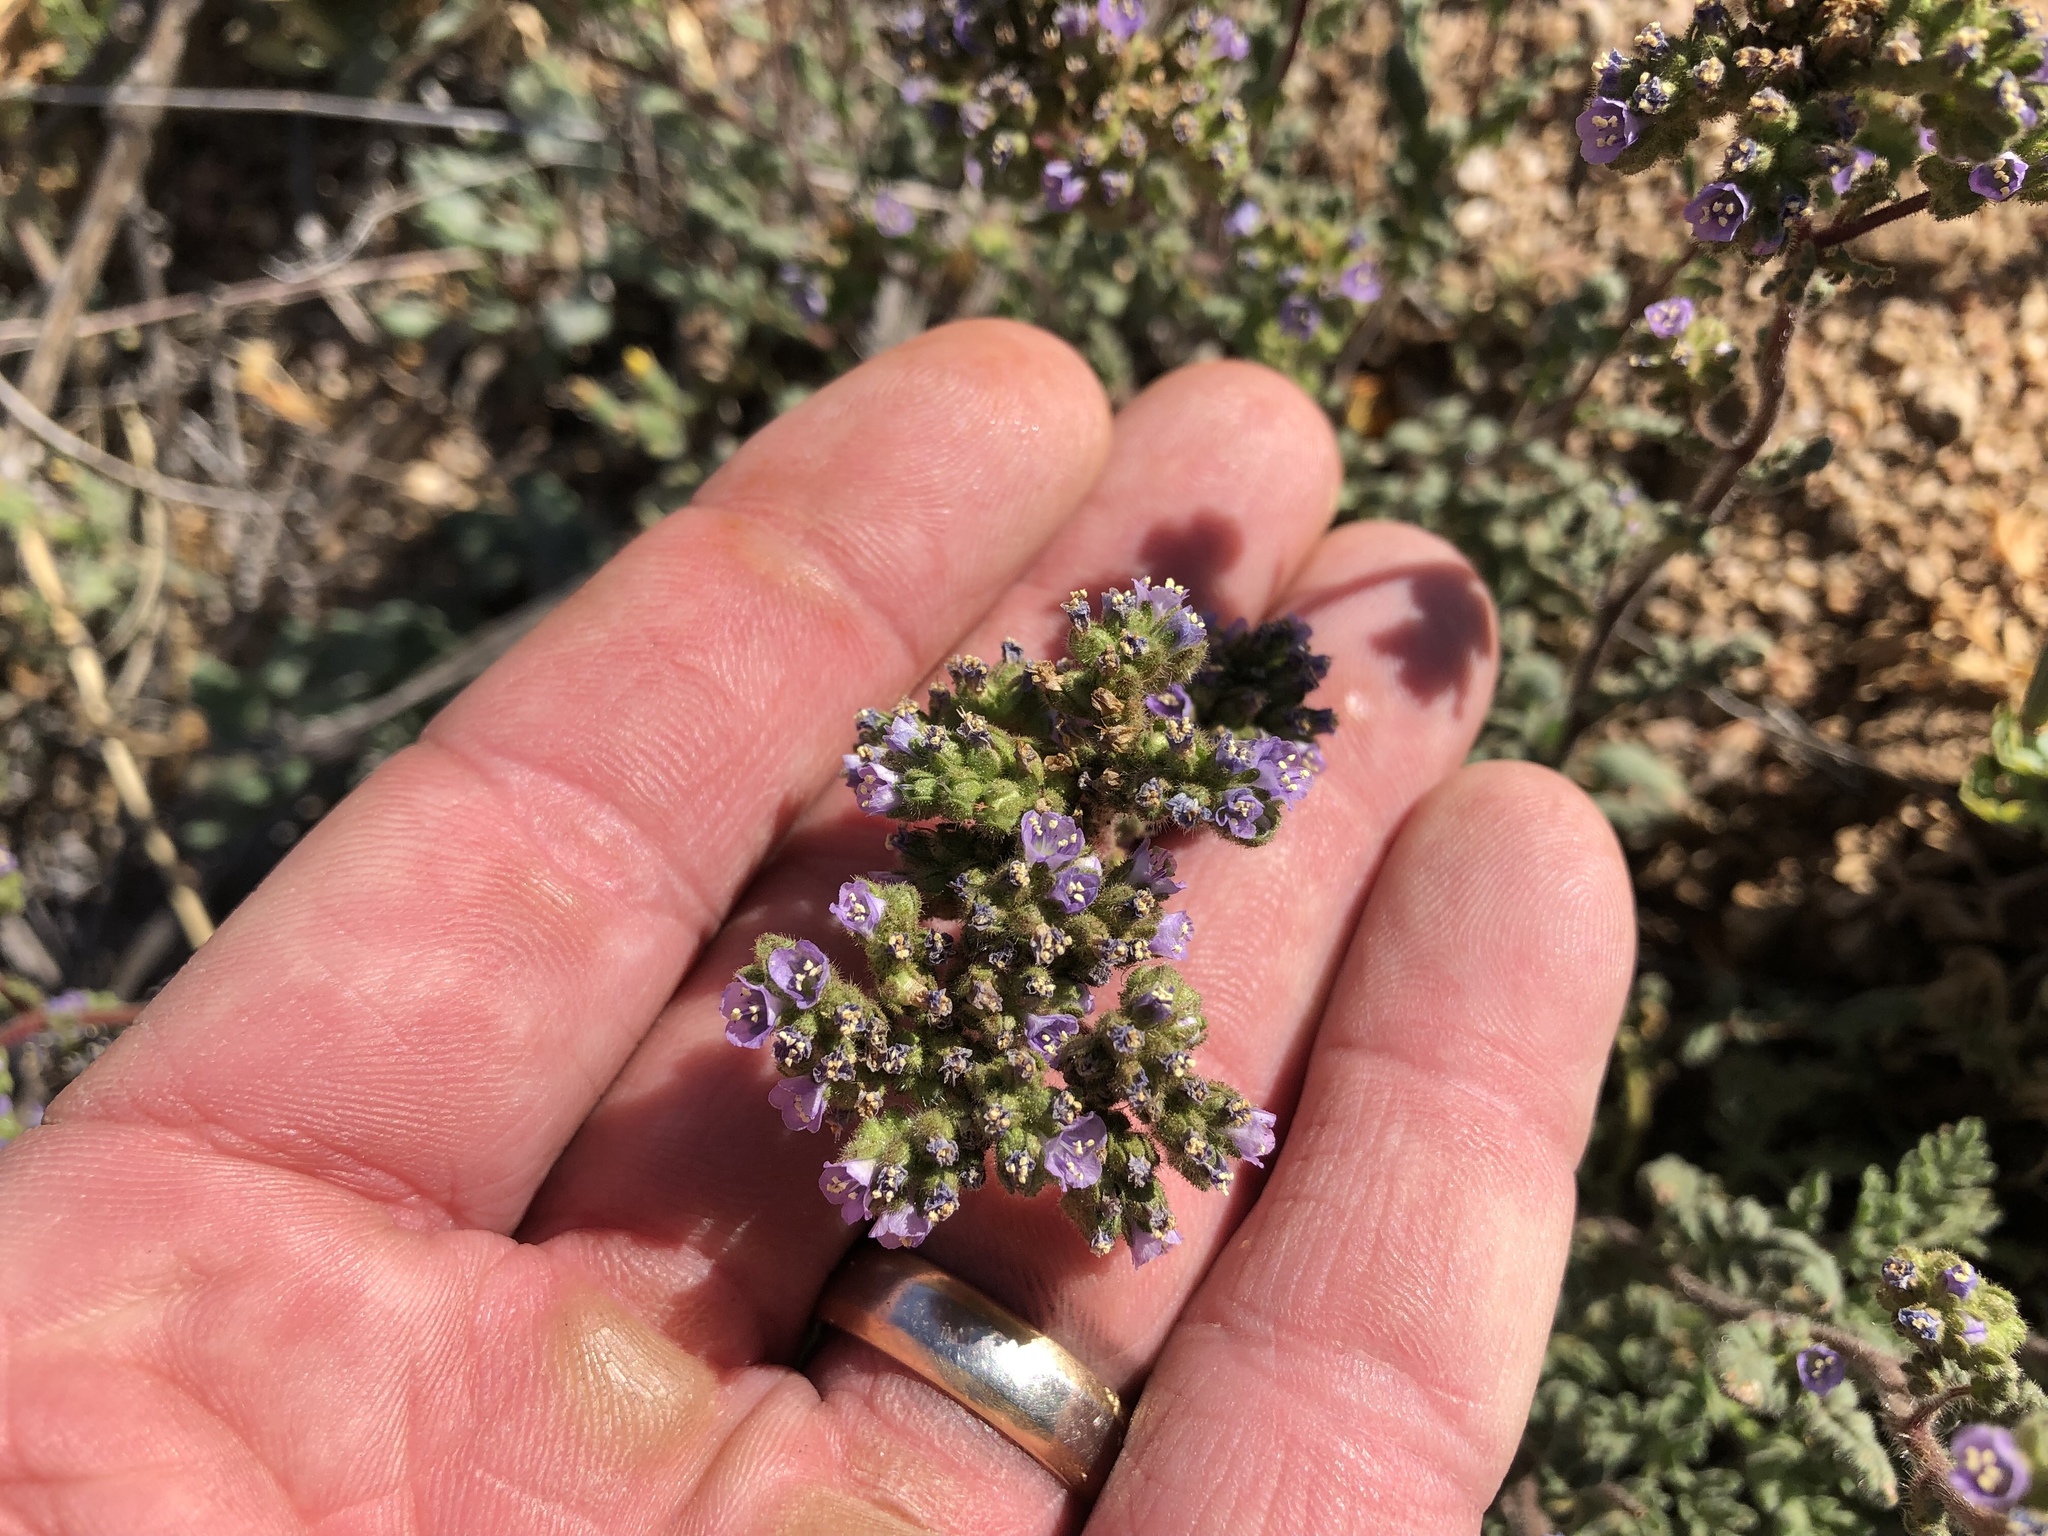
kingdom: Plantae
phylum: Tracheophyta
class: Magnoliopsida
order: Boraginales
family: Hydrophyllaceae
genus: Phacelia
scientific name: Phacelia coerulea
